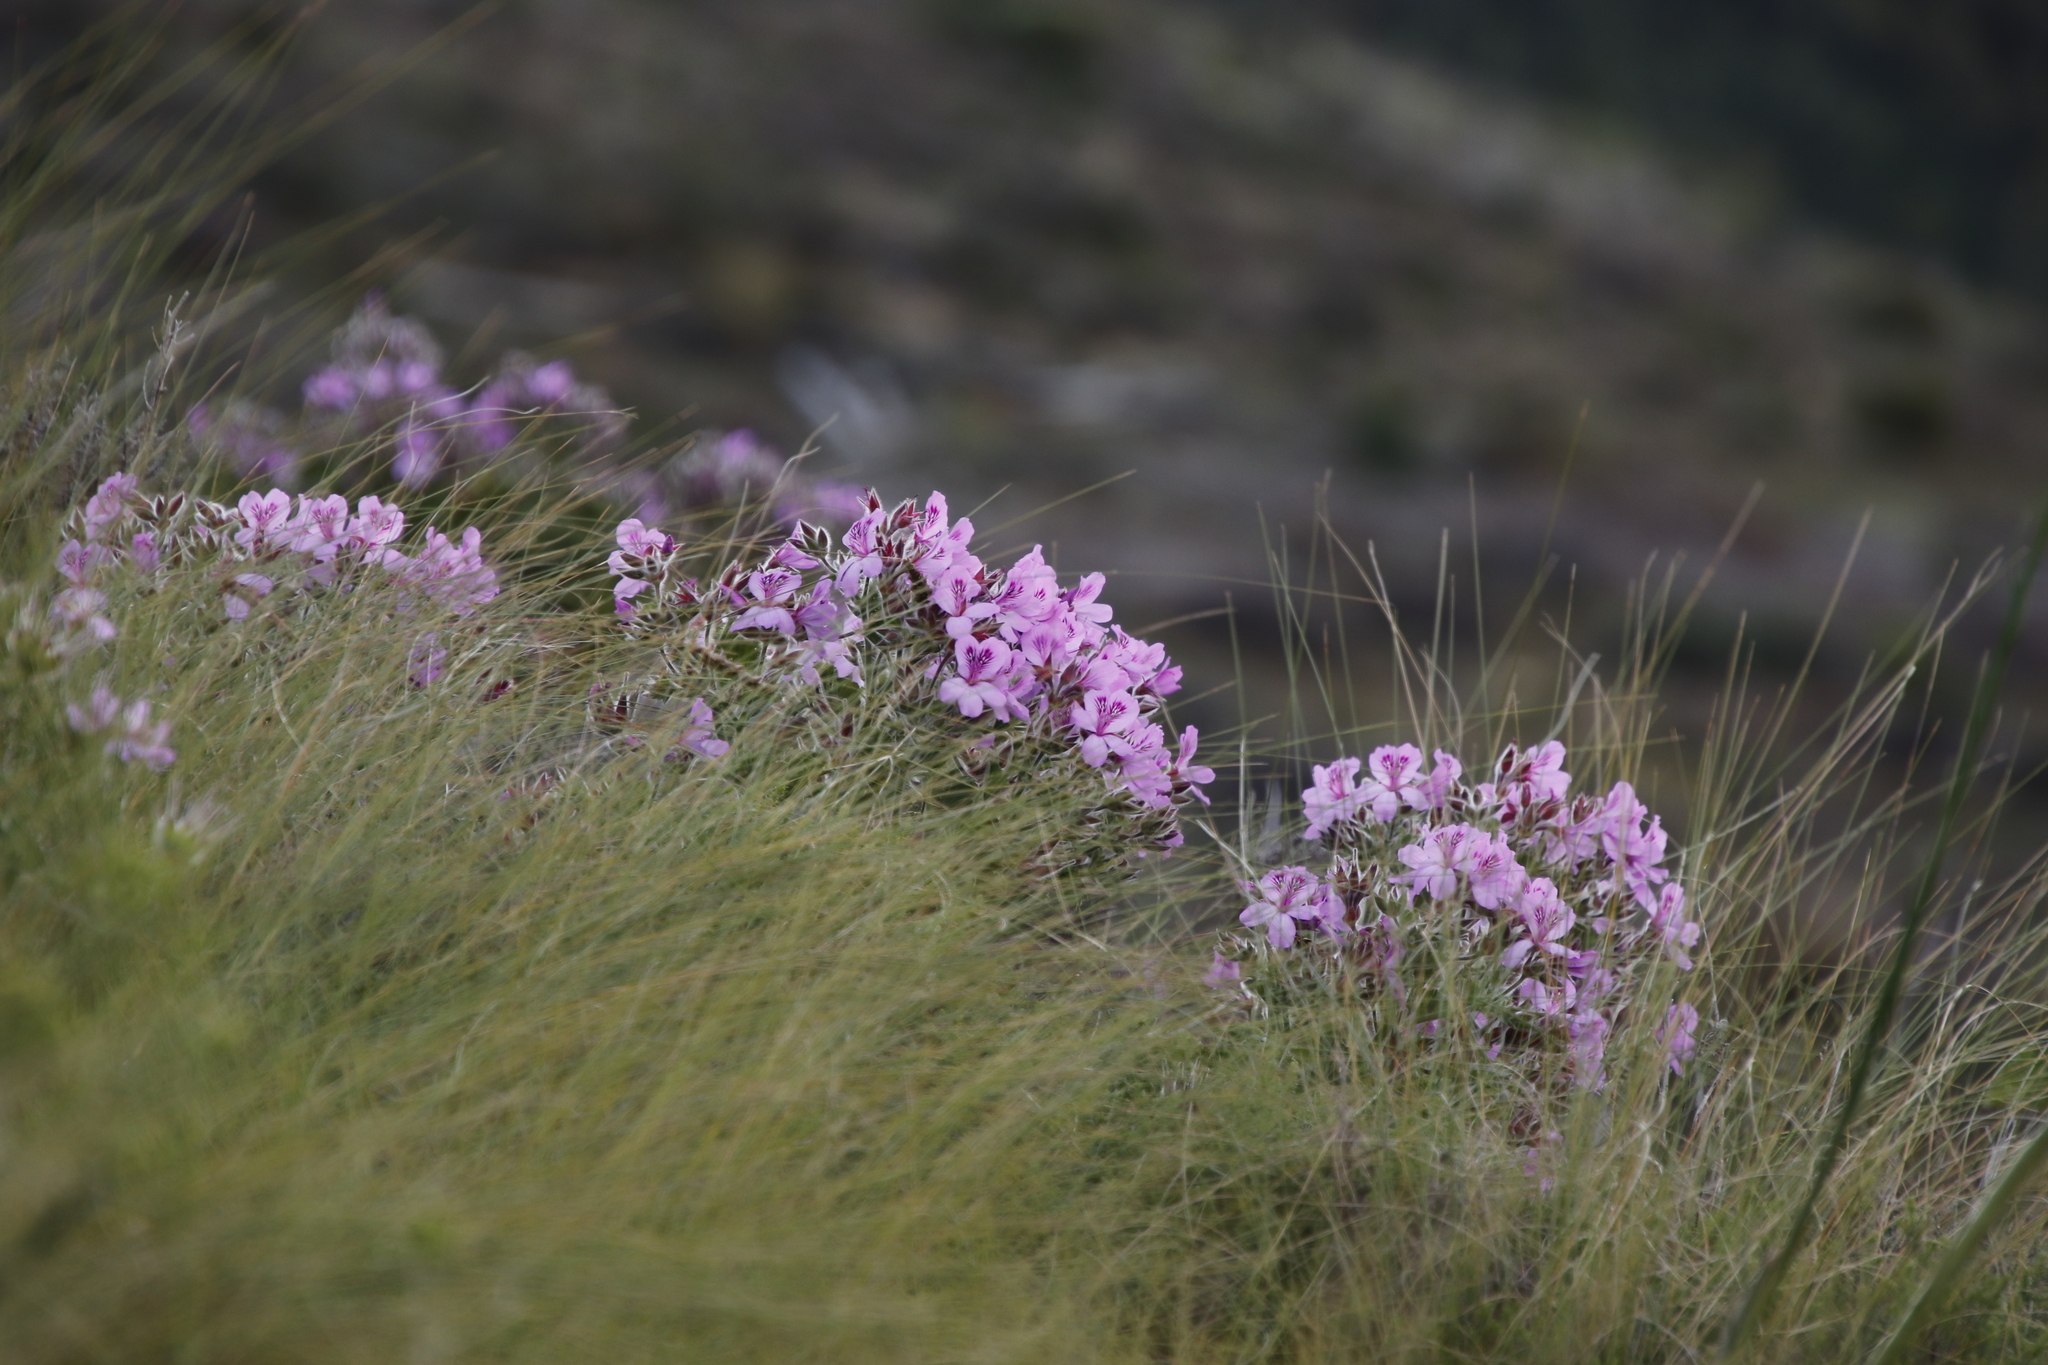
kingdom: Plantae
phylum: Tracheophyta
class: Magnoliopsida
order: Geraniales
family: Geraniaceae
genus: Pelargonium
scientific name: Pelargonium cucullatum
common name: Tree pelargonium
